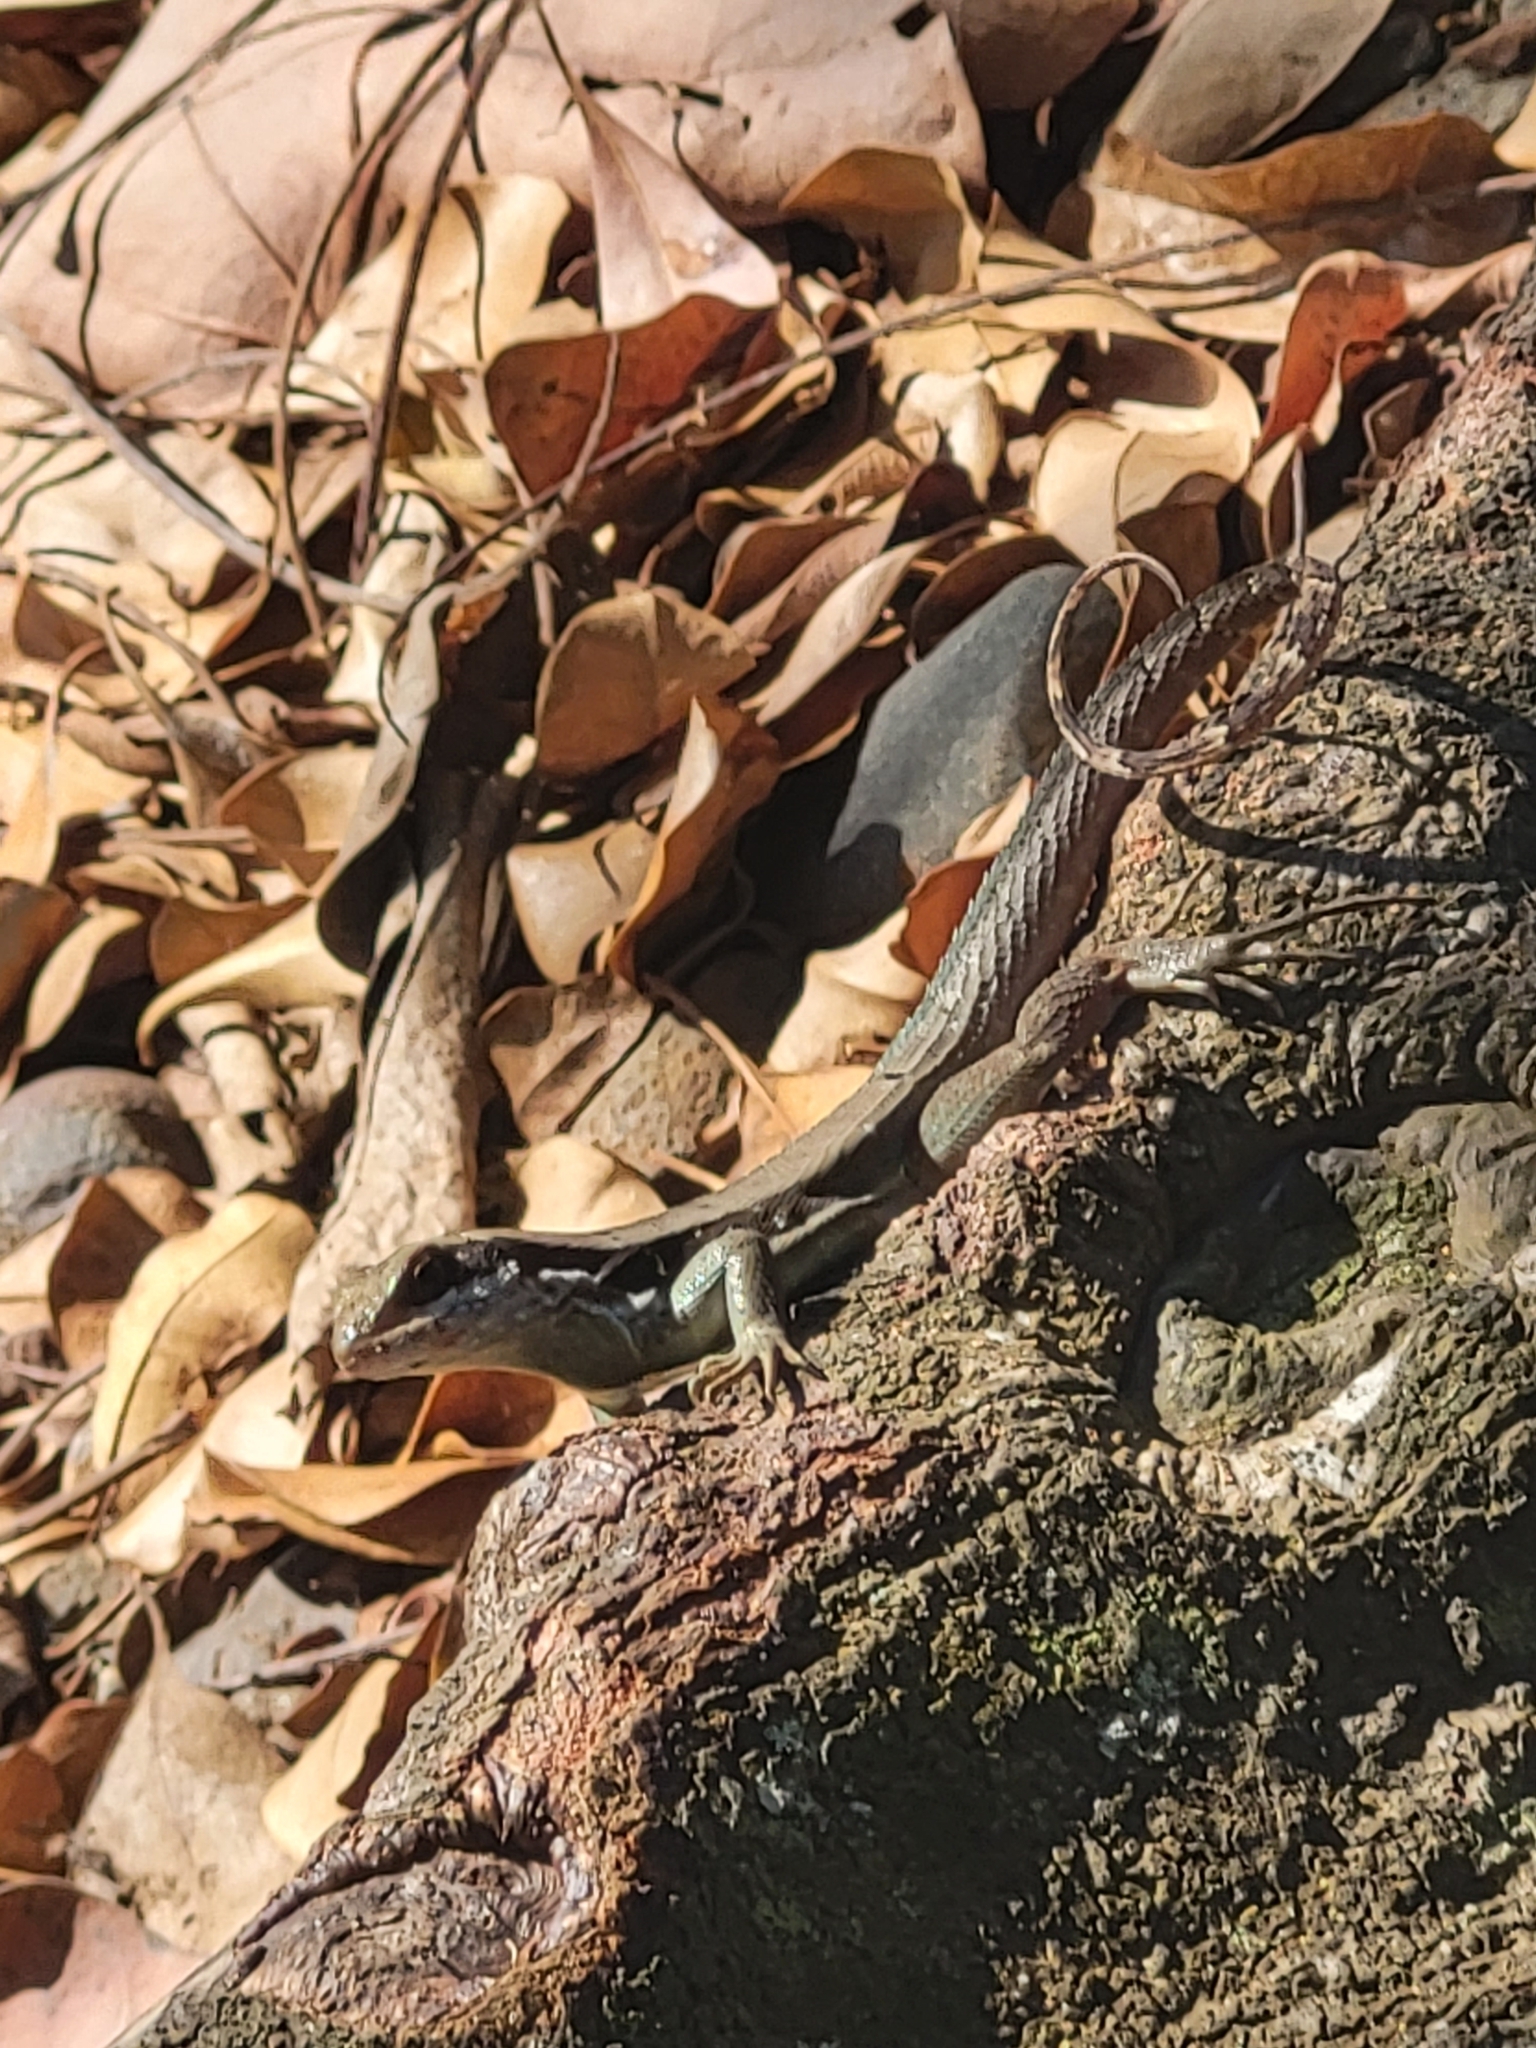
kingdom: Animalia
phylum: Chordata
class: Squamata
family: Leiocephalidae
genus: Leiocephalus
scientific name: Leiocephalus macropus
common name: Monte verde curlytail lizard
